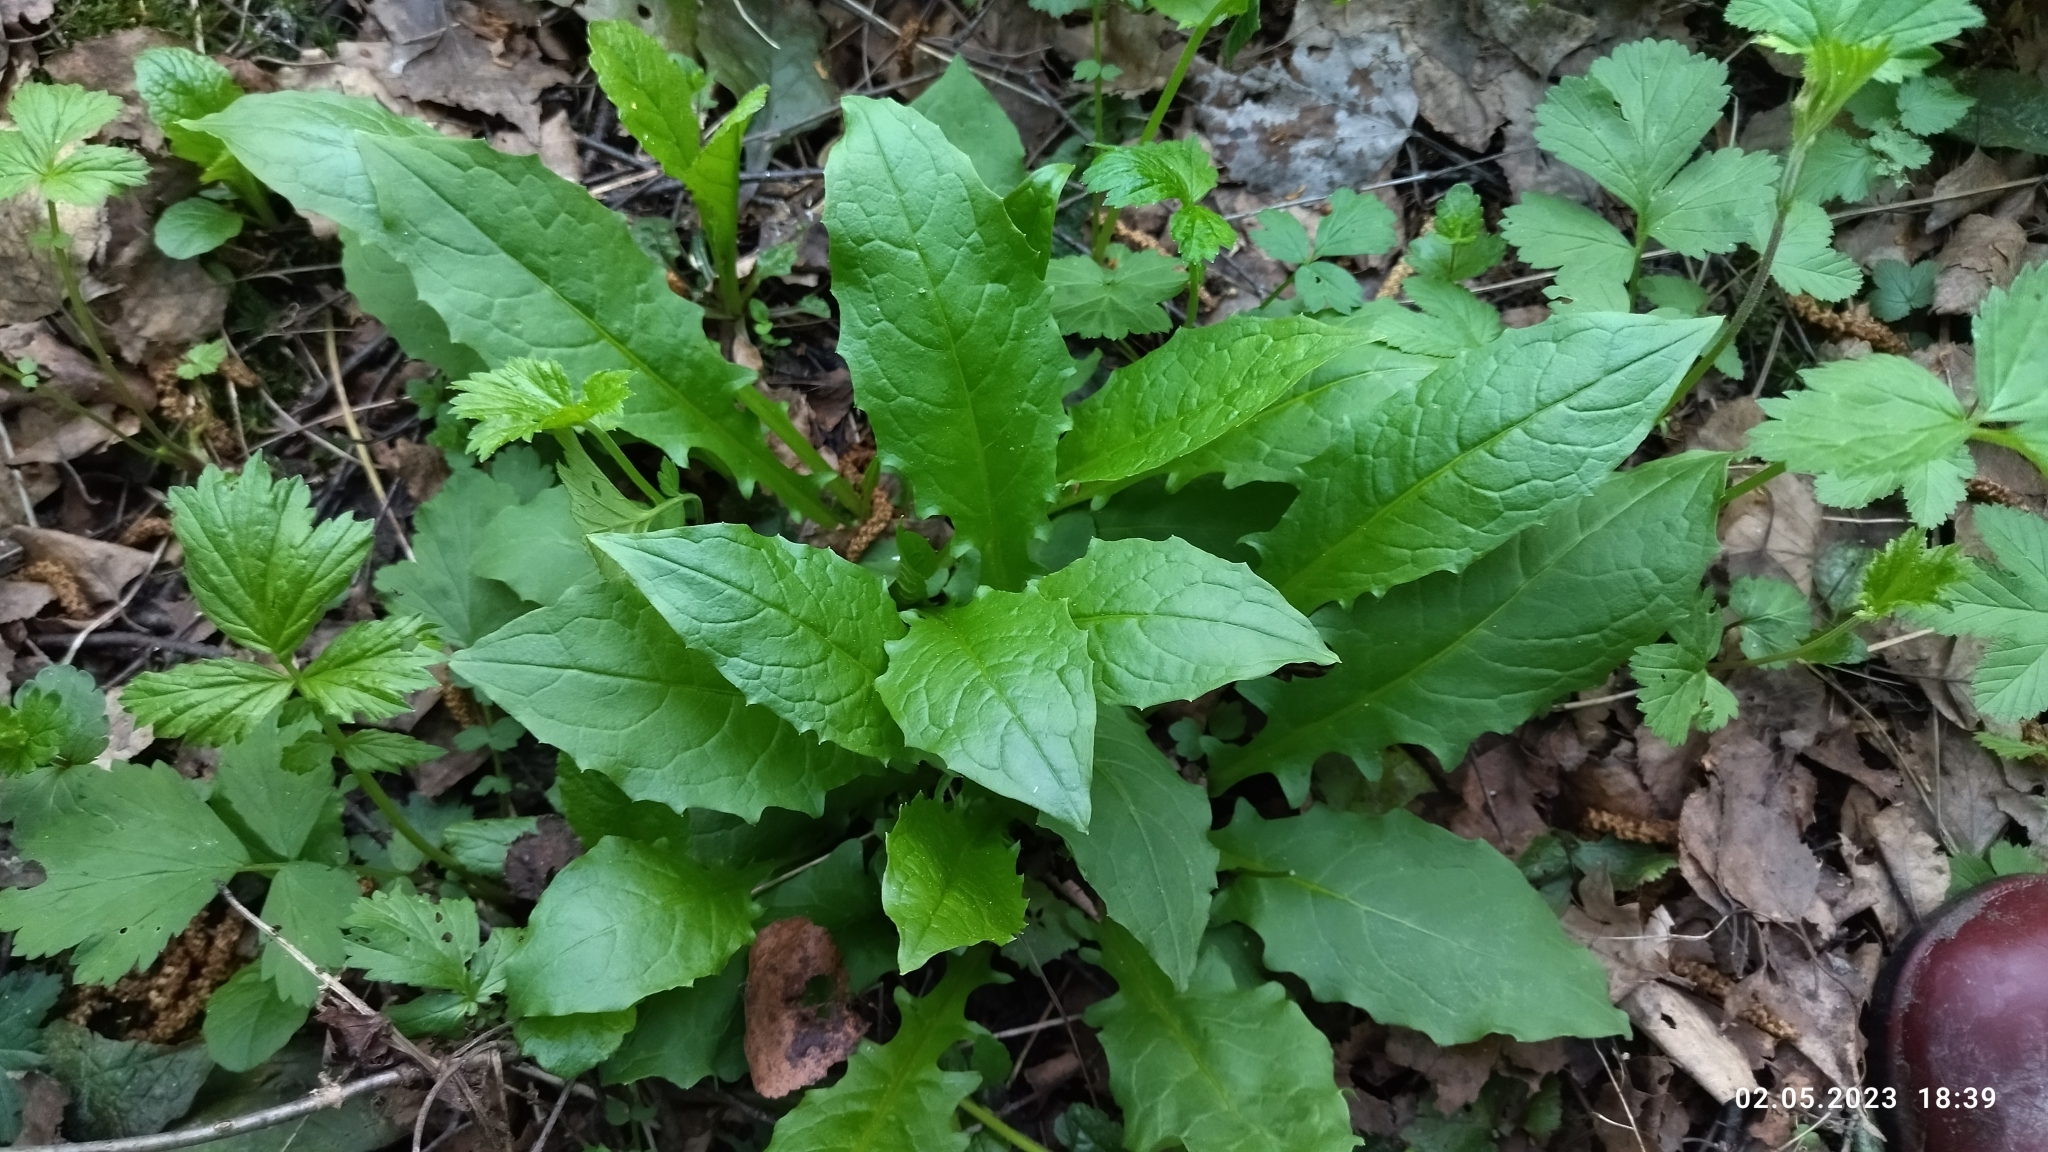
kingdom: Plantae
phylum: Tracheophyta
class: Magnoliopsida
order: Asterales
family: Asteraceae
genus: Crepis
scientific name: Crepis paludosa
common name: Marsh hawk's-beard
